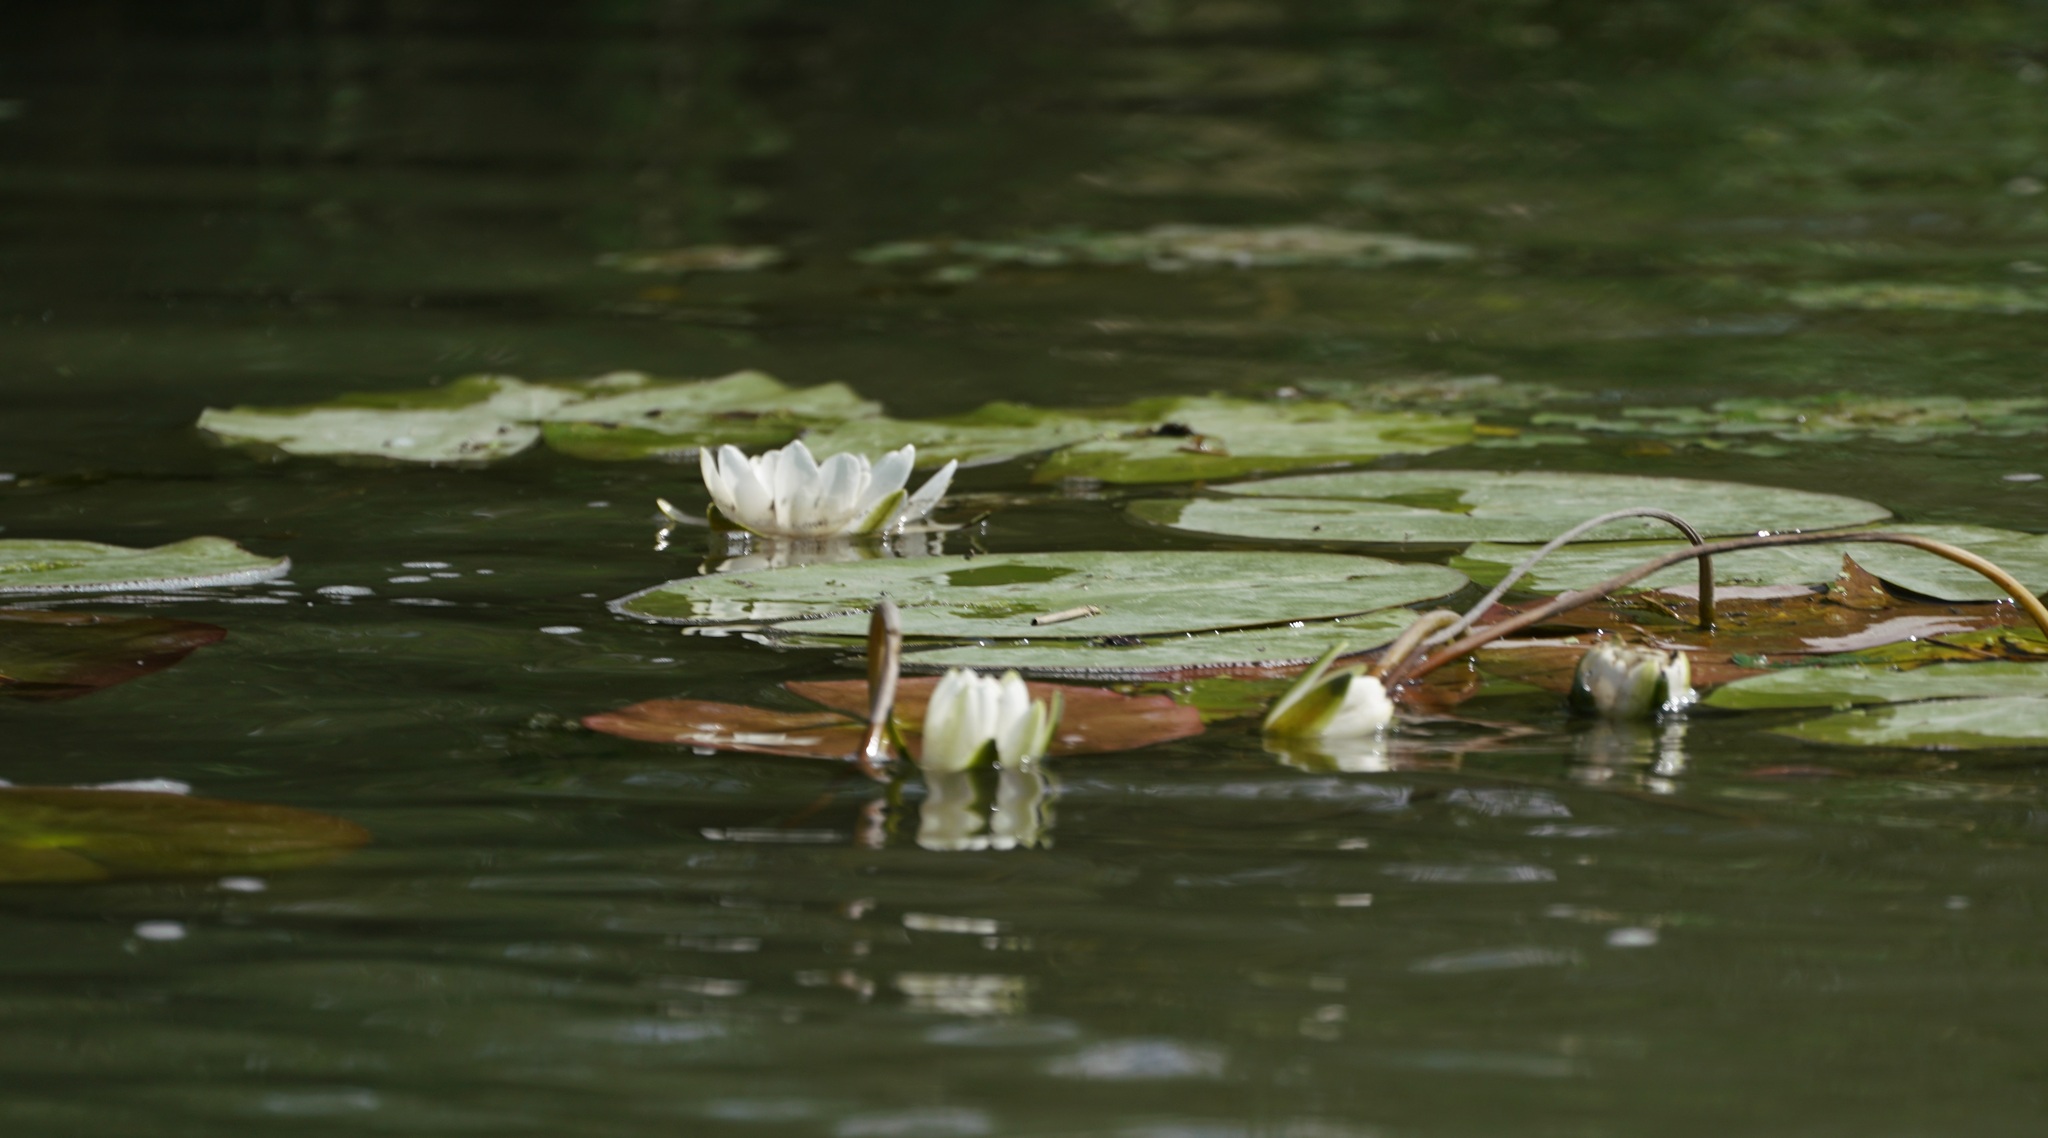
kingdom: Plantae
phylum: Tracheophyta
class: Magnoliopsida
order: Nymphaeales
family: Nymphaeaceae
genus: Nymphaea
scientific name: Nymphaea alba
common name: White water-lily
